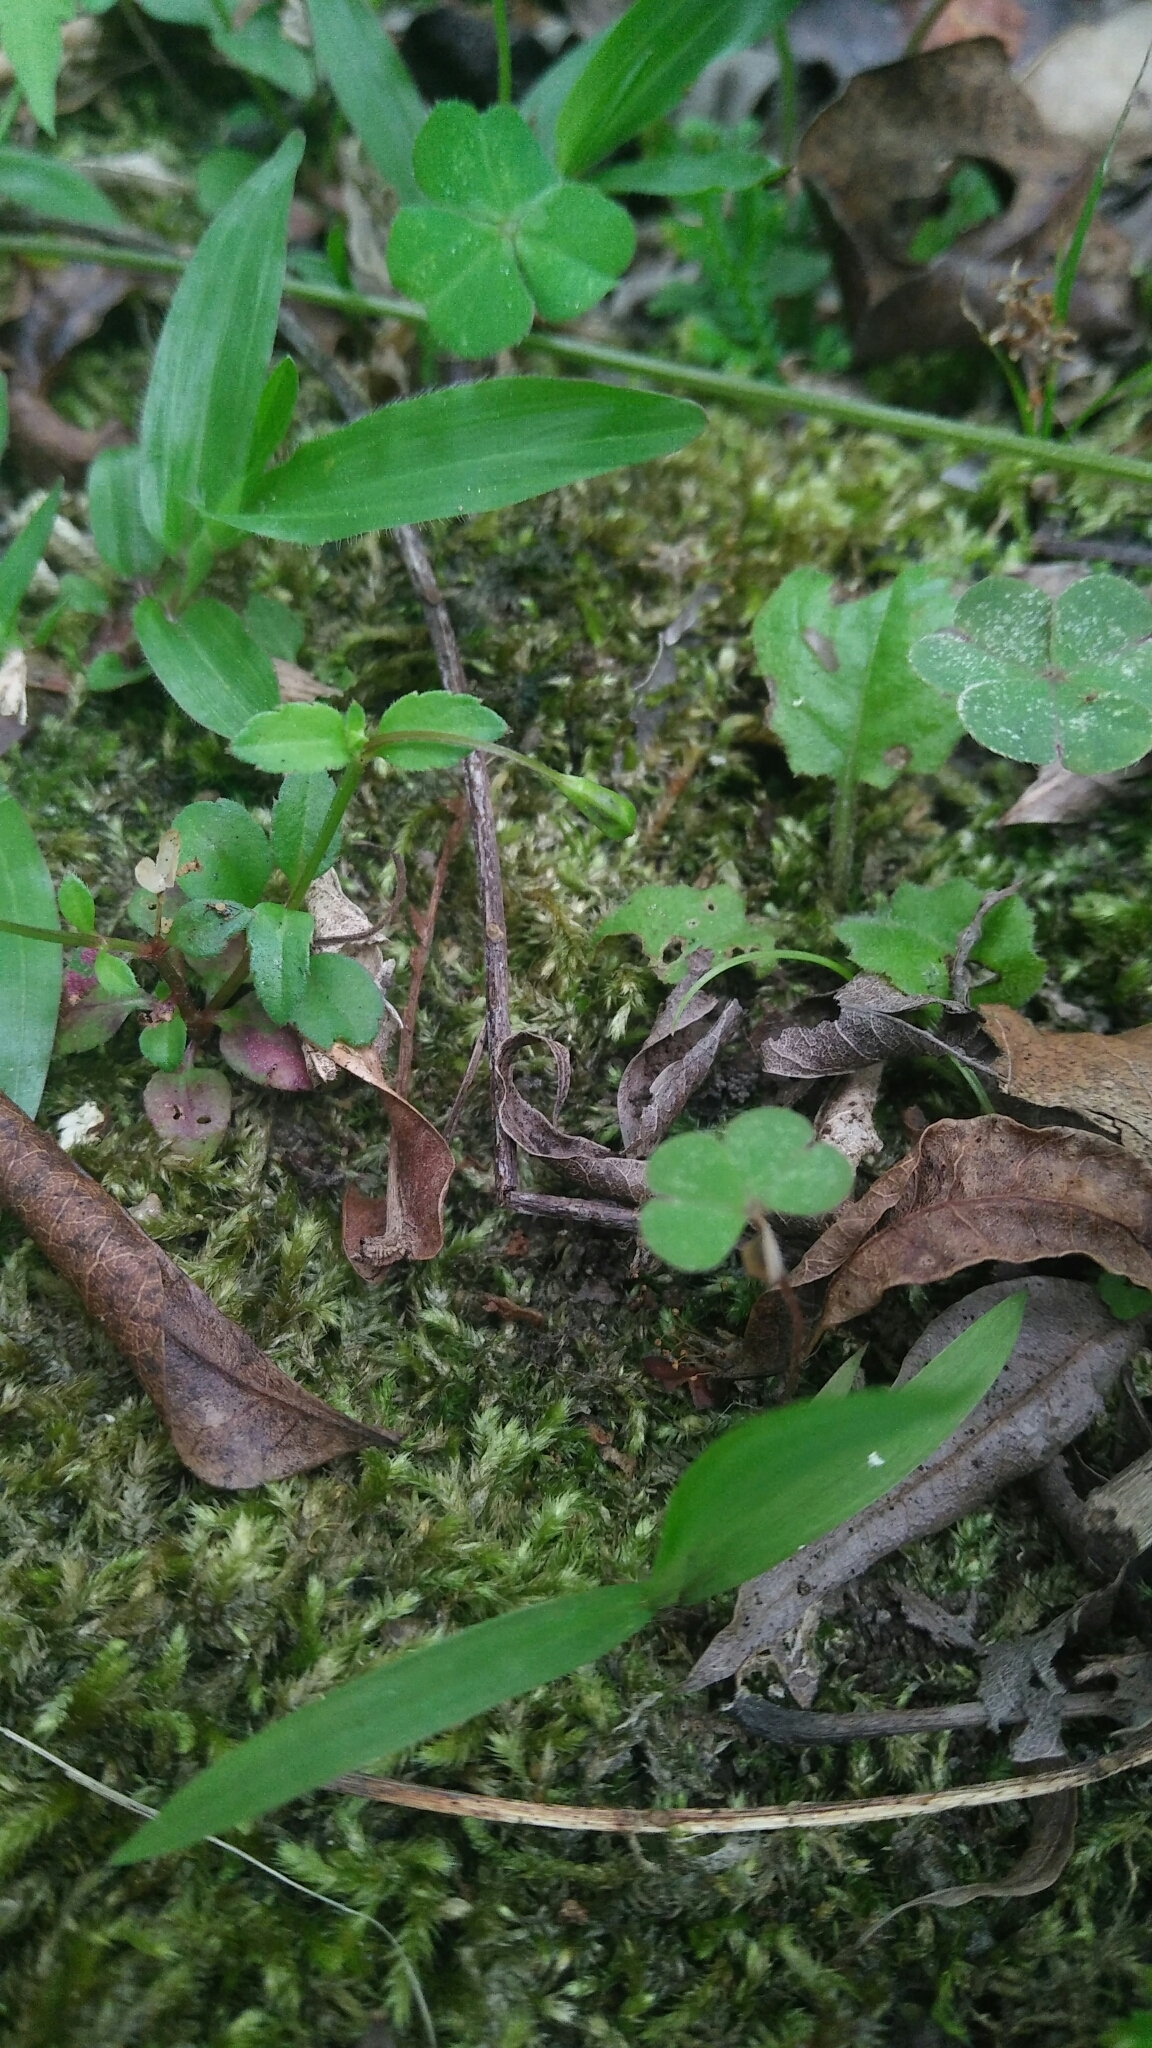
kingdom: Plantae
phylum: Tracheophyta
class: Magnoliopsida
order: Lamiales
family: Linderniaceae
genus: Torenia
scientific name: Torenia crustacea
